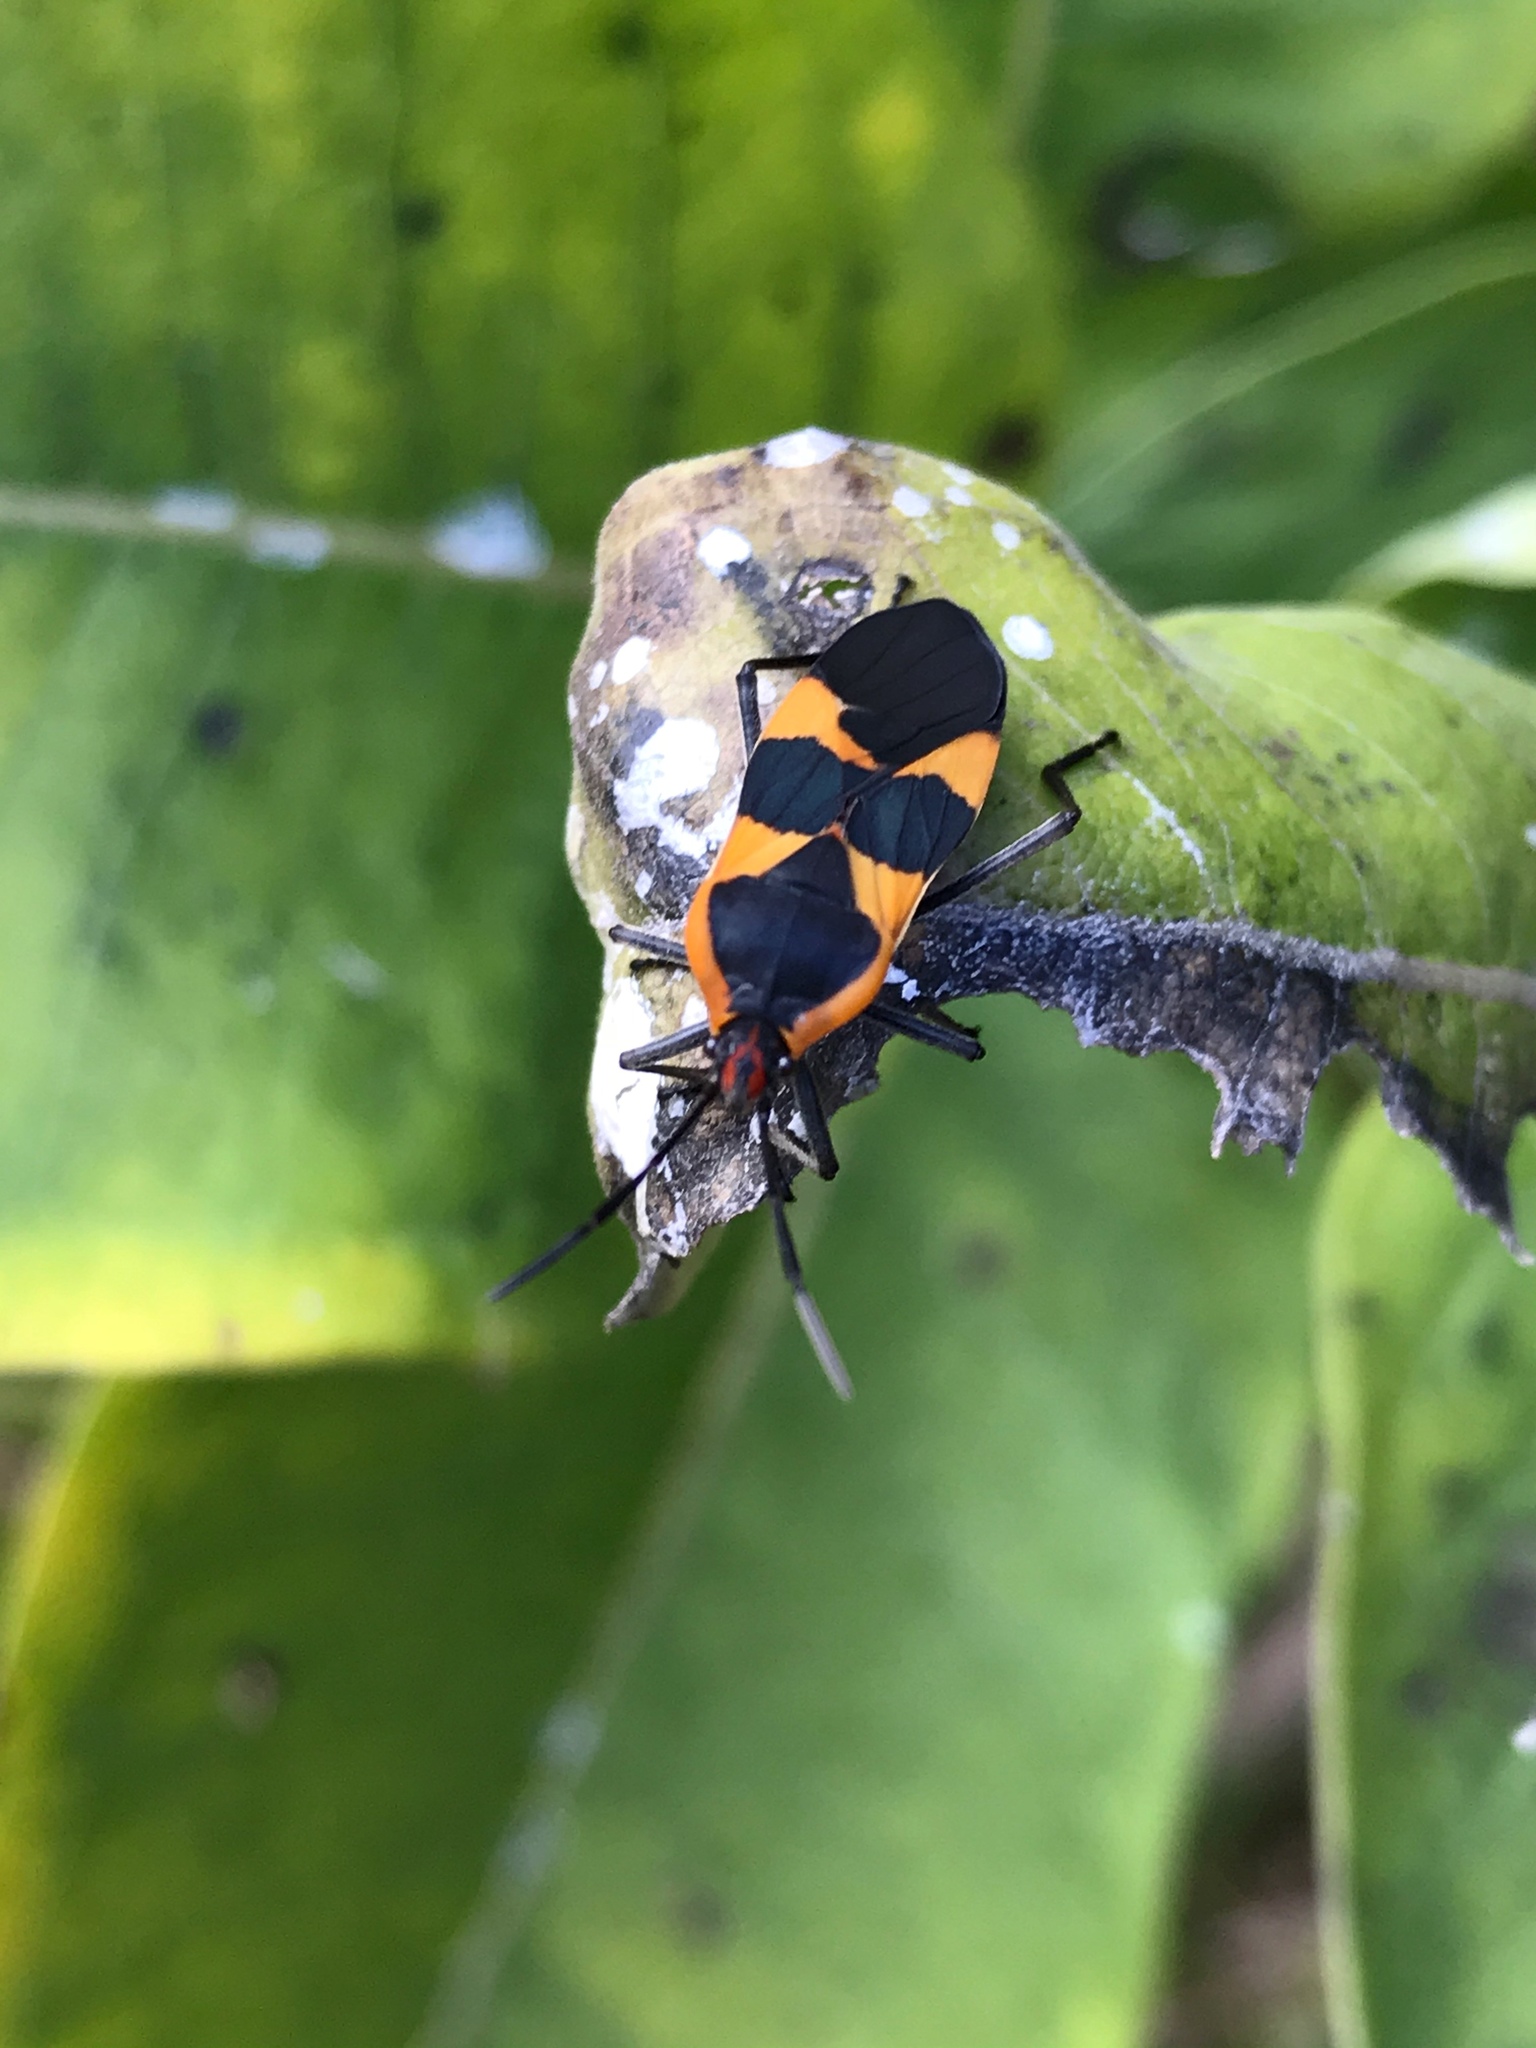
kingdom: Animalia
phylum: Arthropoda
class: Insecta
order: Hemiptera
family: Lygaeidae
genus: Oncopeltus
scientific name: Oncopeltus fasciatus
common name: Large milkweed bug
